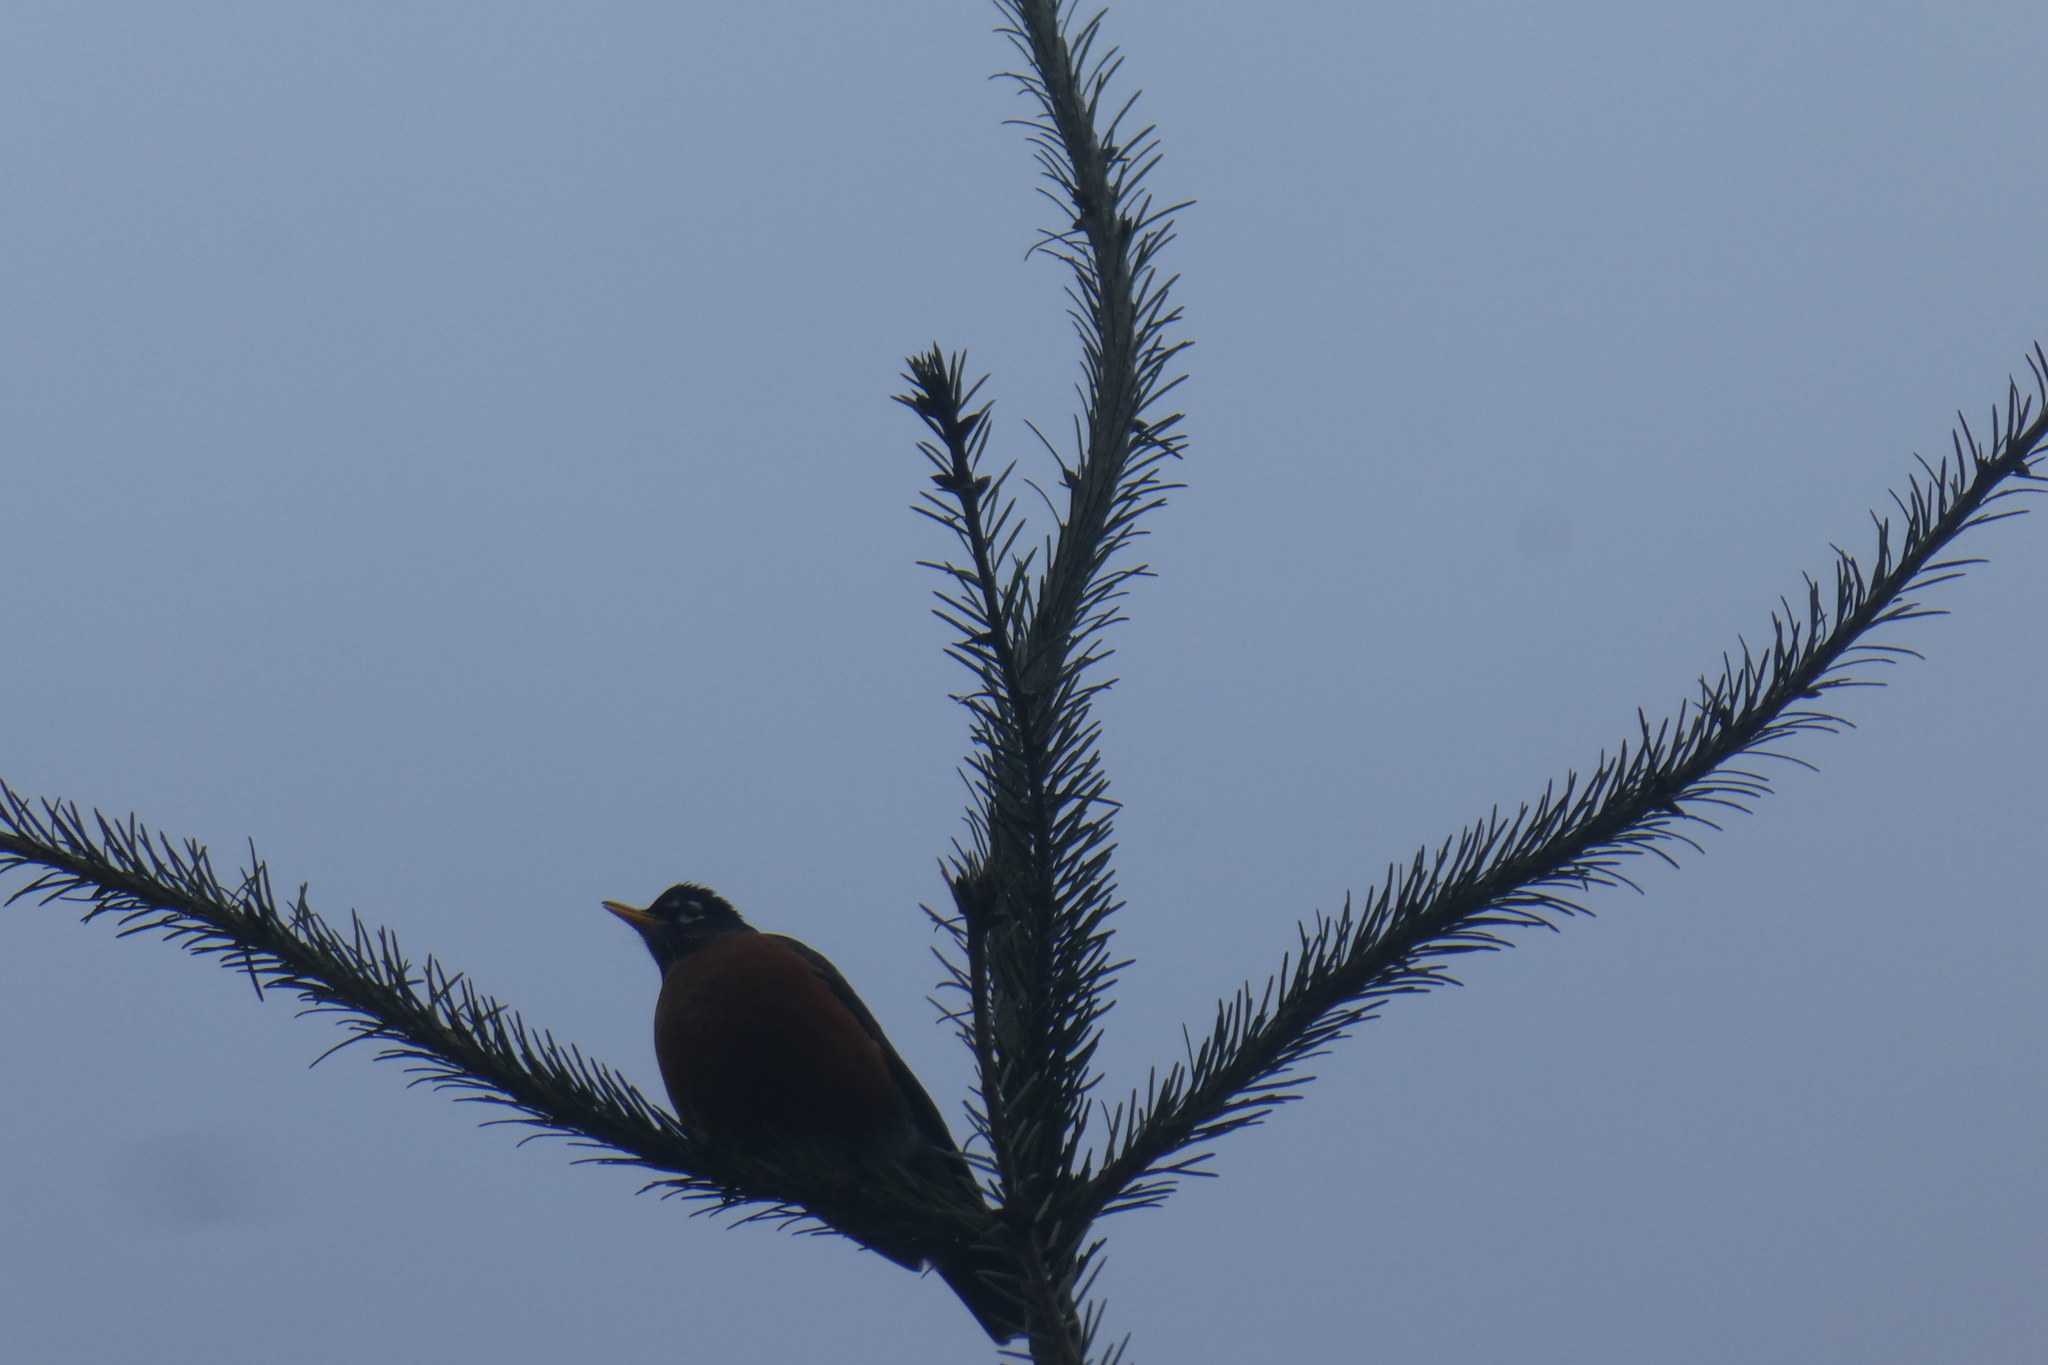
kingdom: Animalia
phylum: Chordata
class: Aves
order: Passeriformes
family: Turdidae
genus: Turdus
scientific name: Turdus migratorius
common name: American robin
